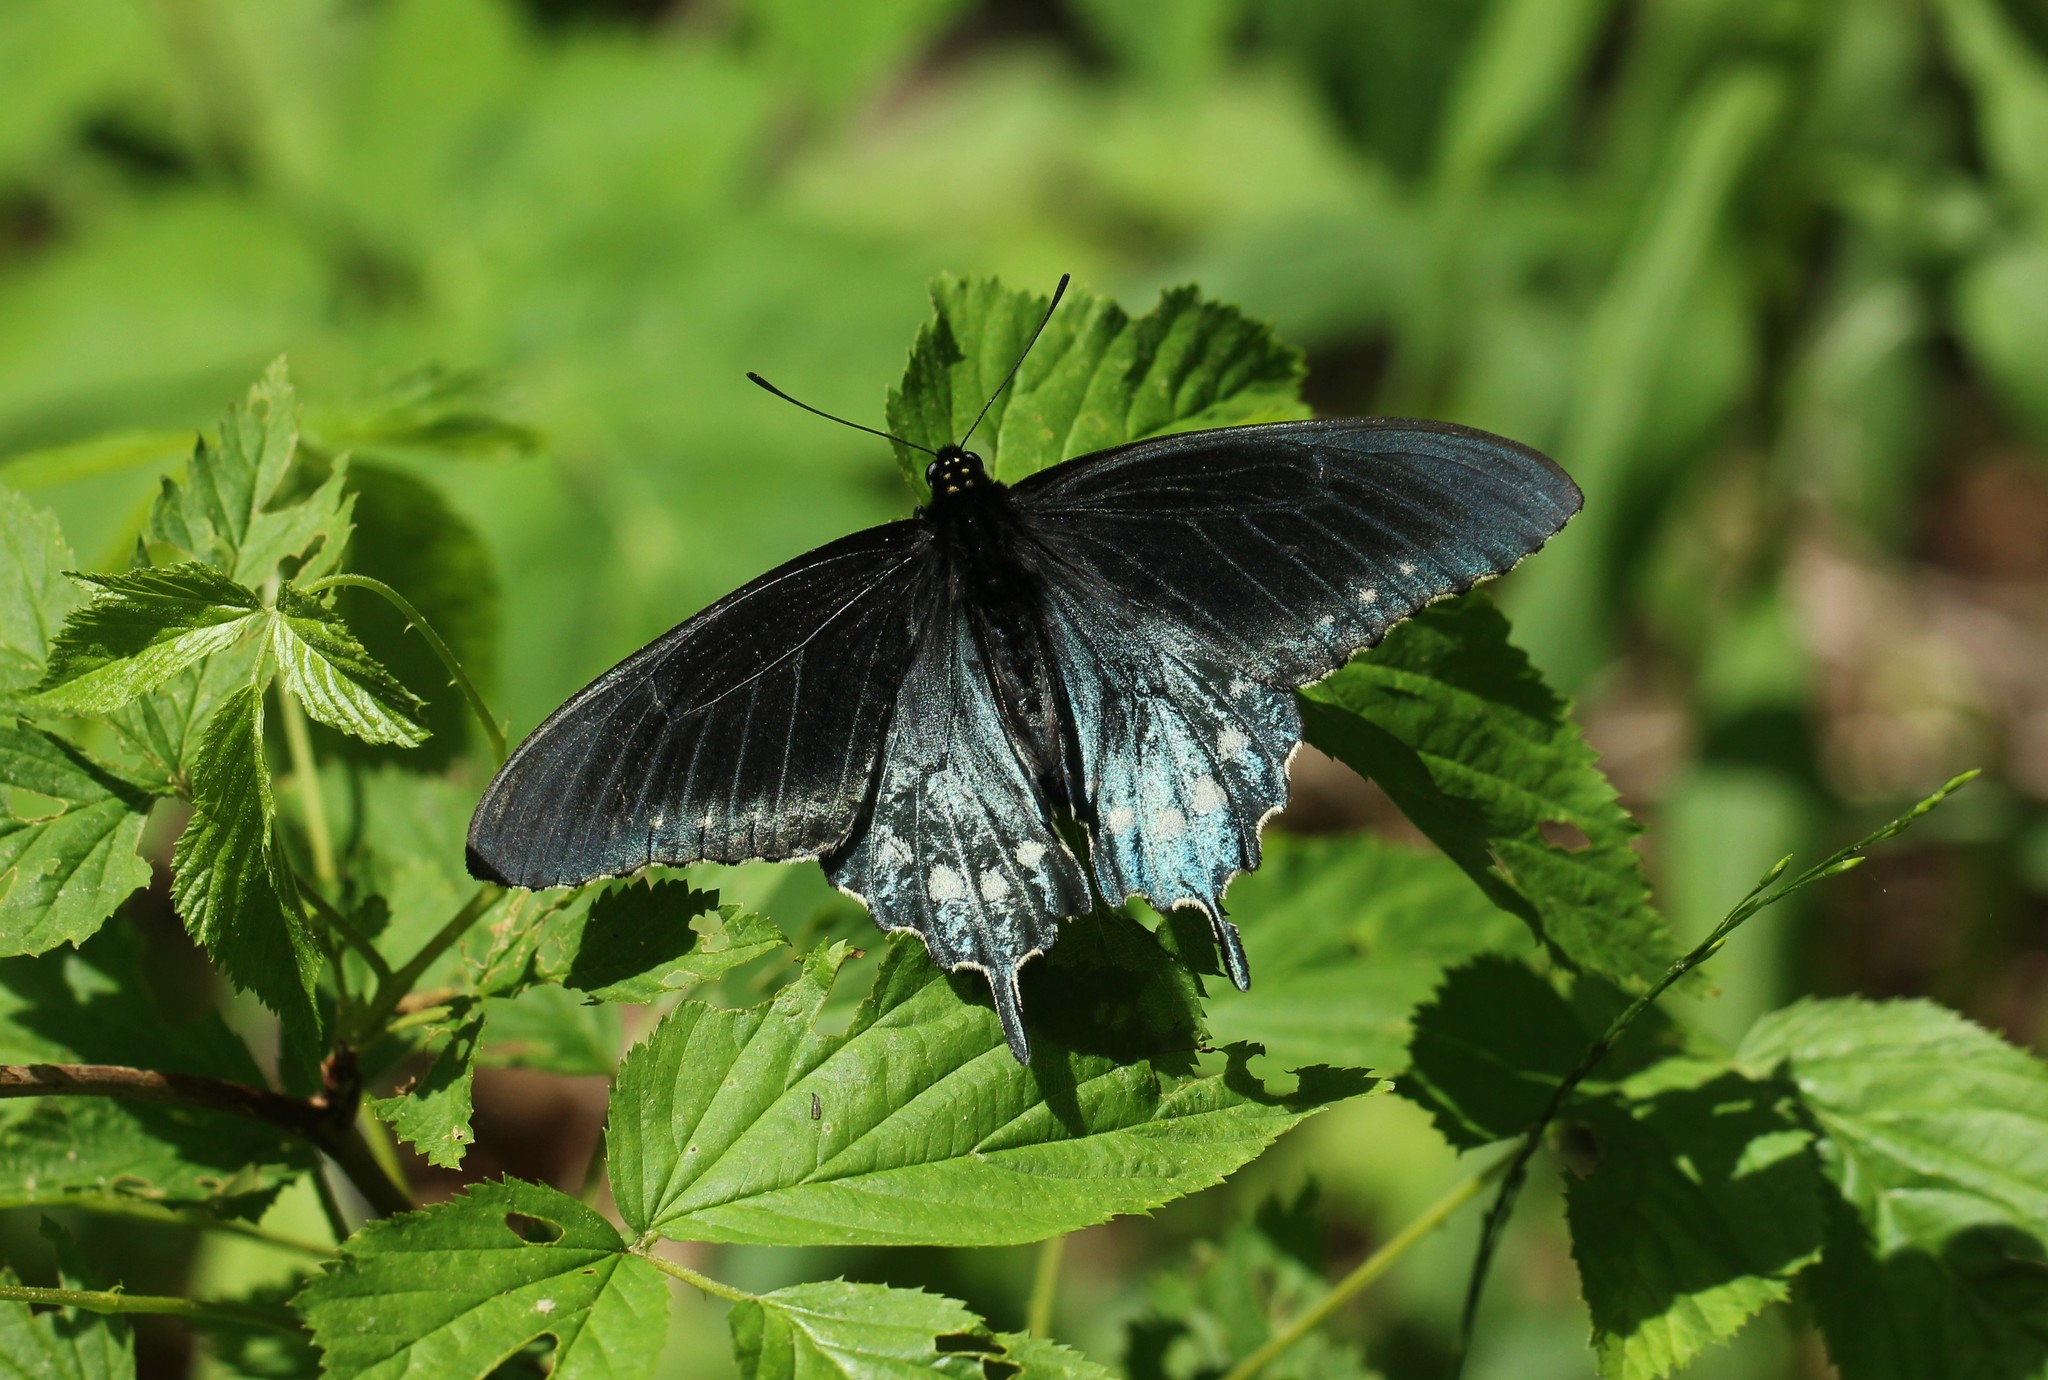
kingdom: Animalia
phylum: Arthropoda
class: Insecta
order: Lepidoptera
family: Papilionidae
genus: Battus
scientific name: Battus philenor
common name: Pipevine swallowtail
